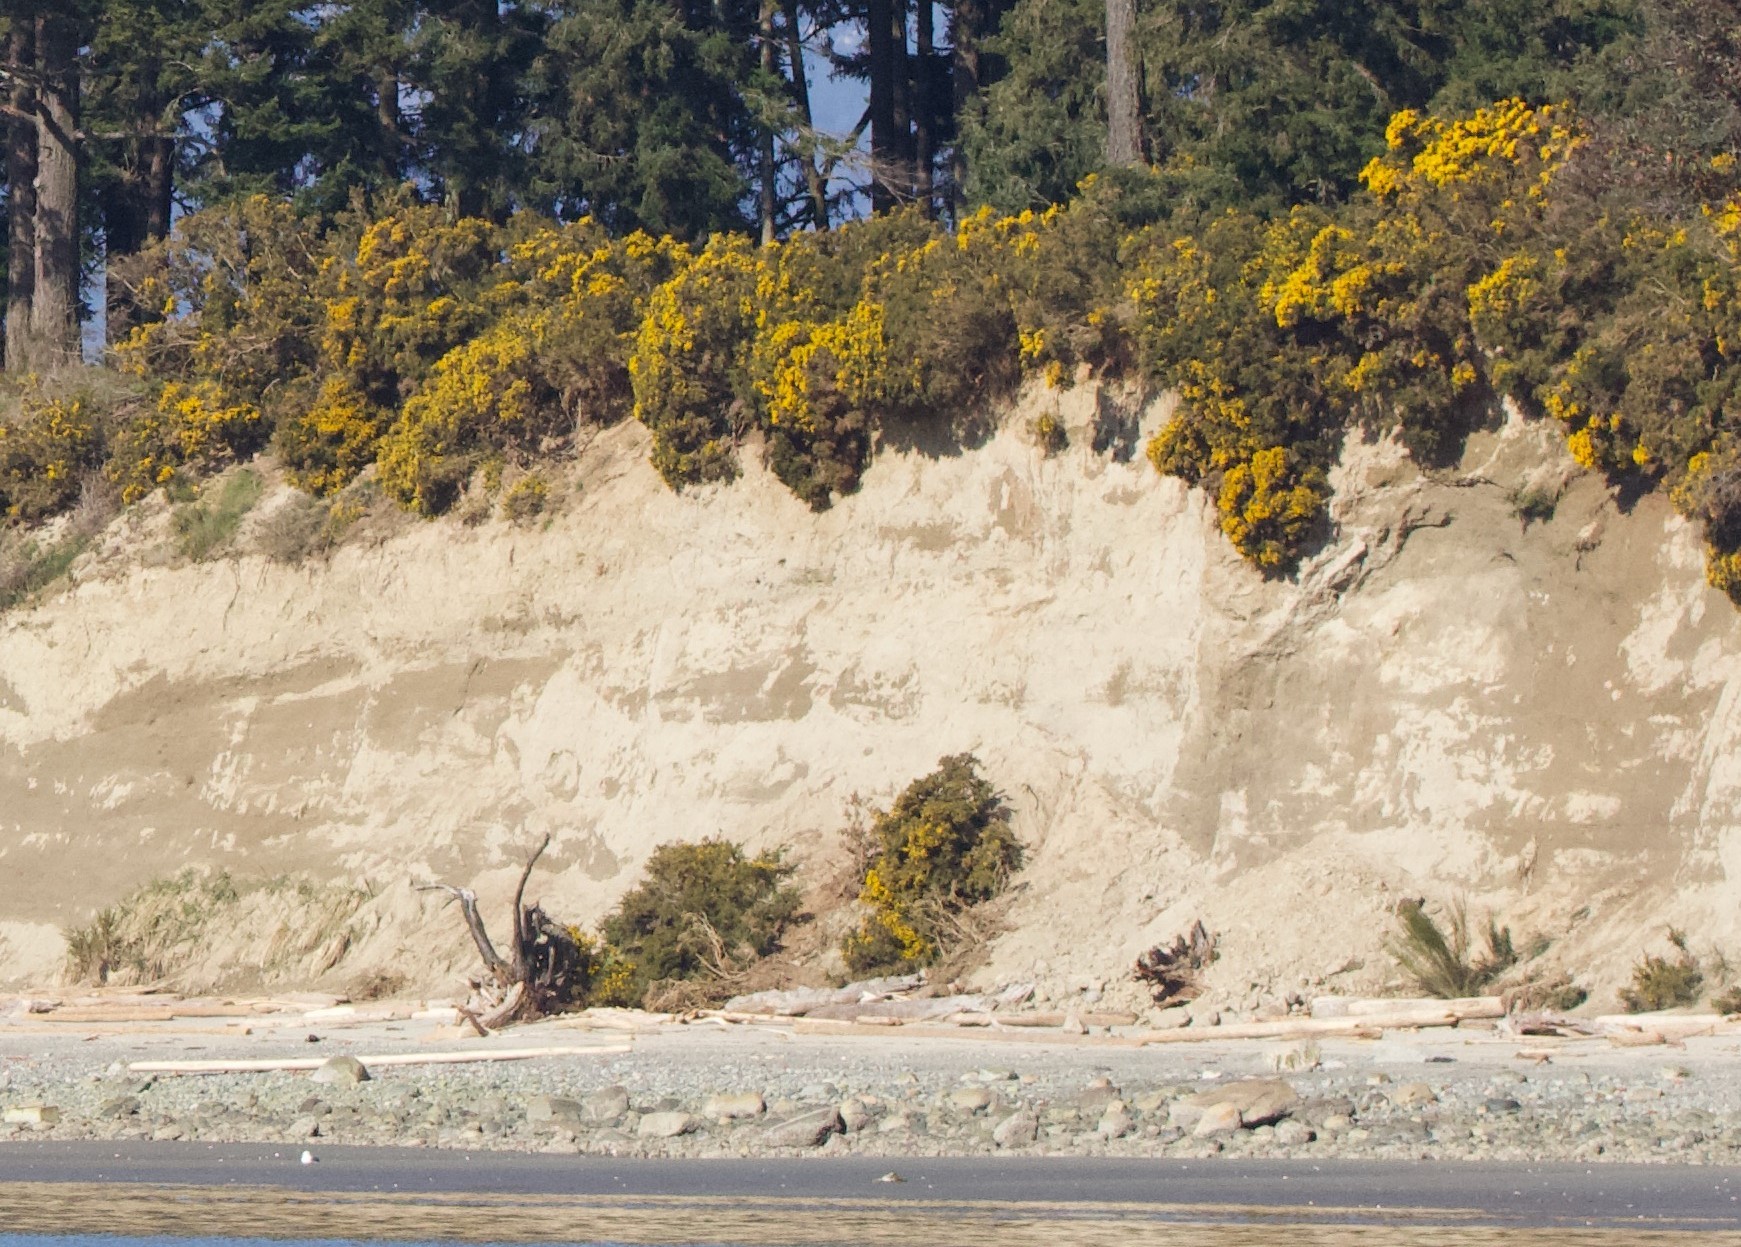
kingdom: Plantae
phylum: Tracheophyta
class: Magnoliopsida
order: Fabales
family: Fabaceae
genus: Cytisus
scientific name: Cytisus scoparius
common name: Scotch broom
